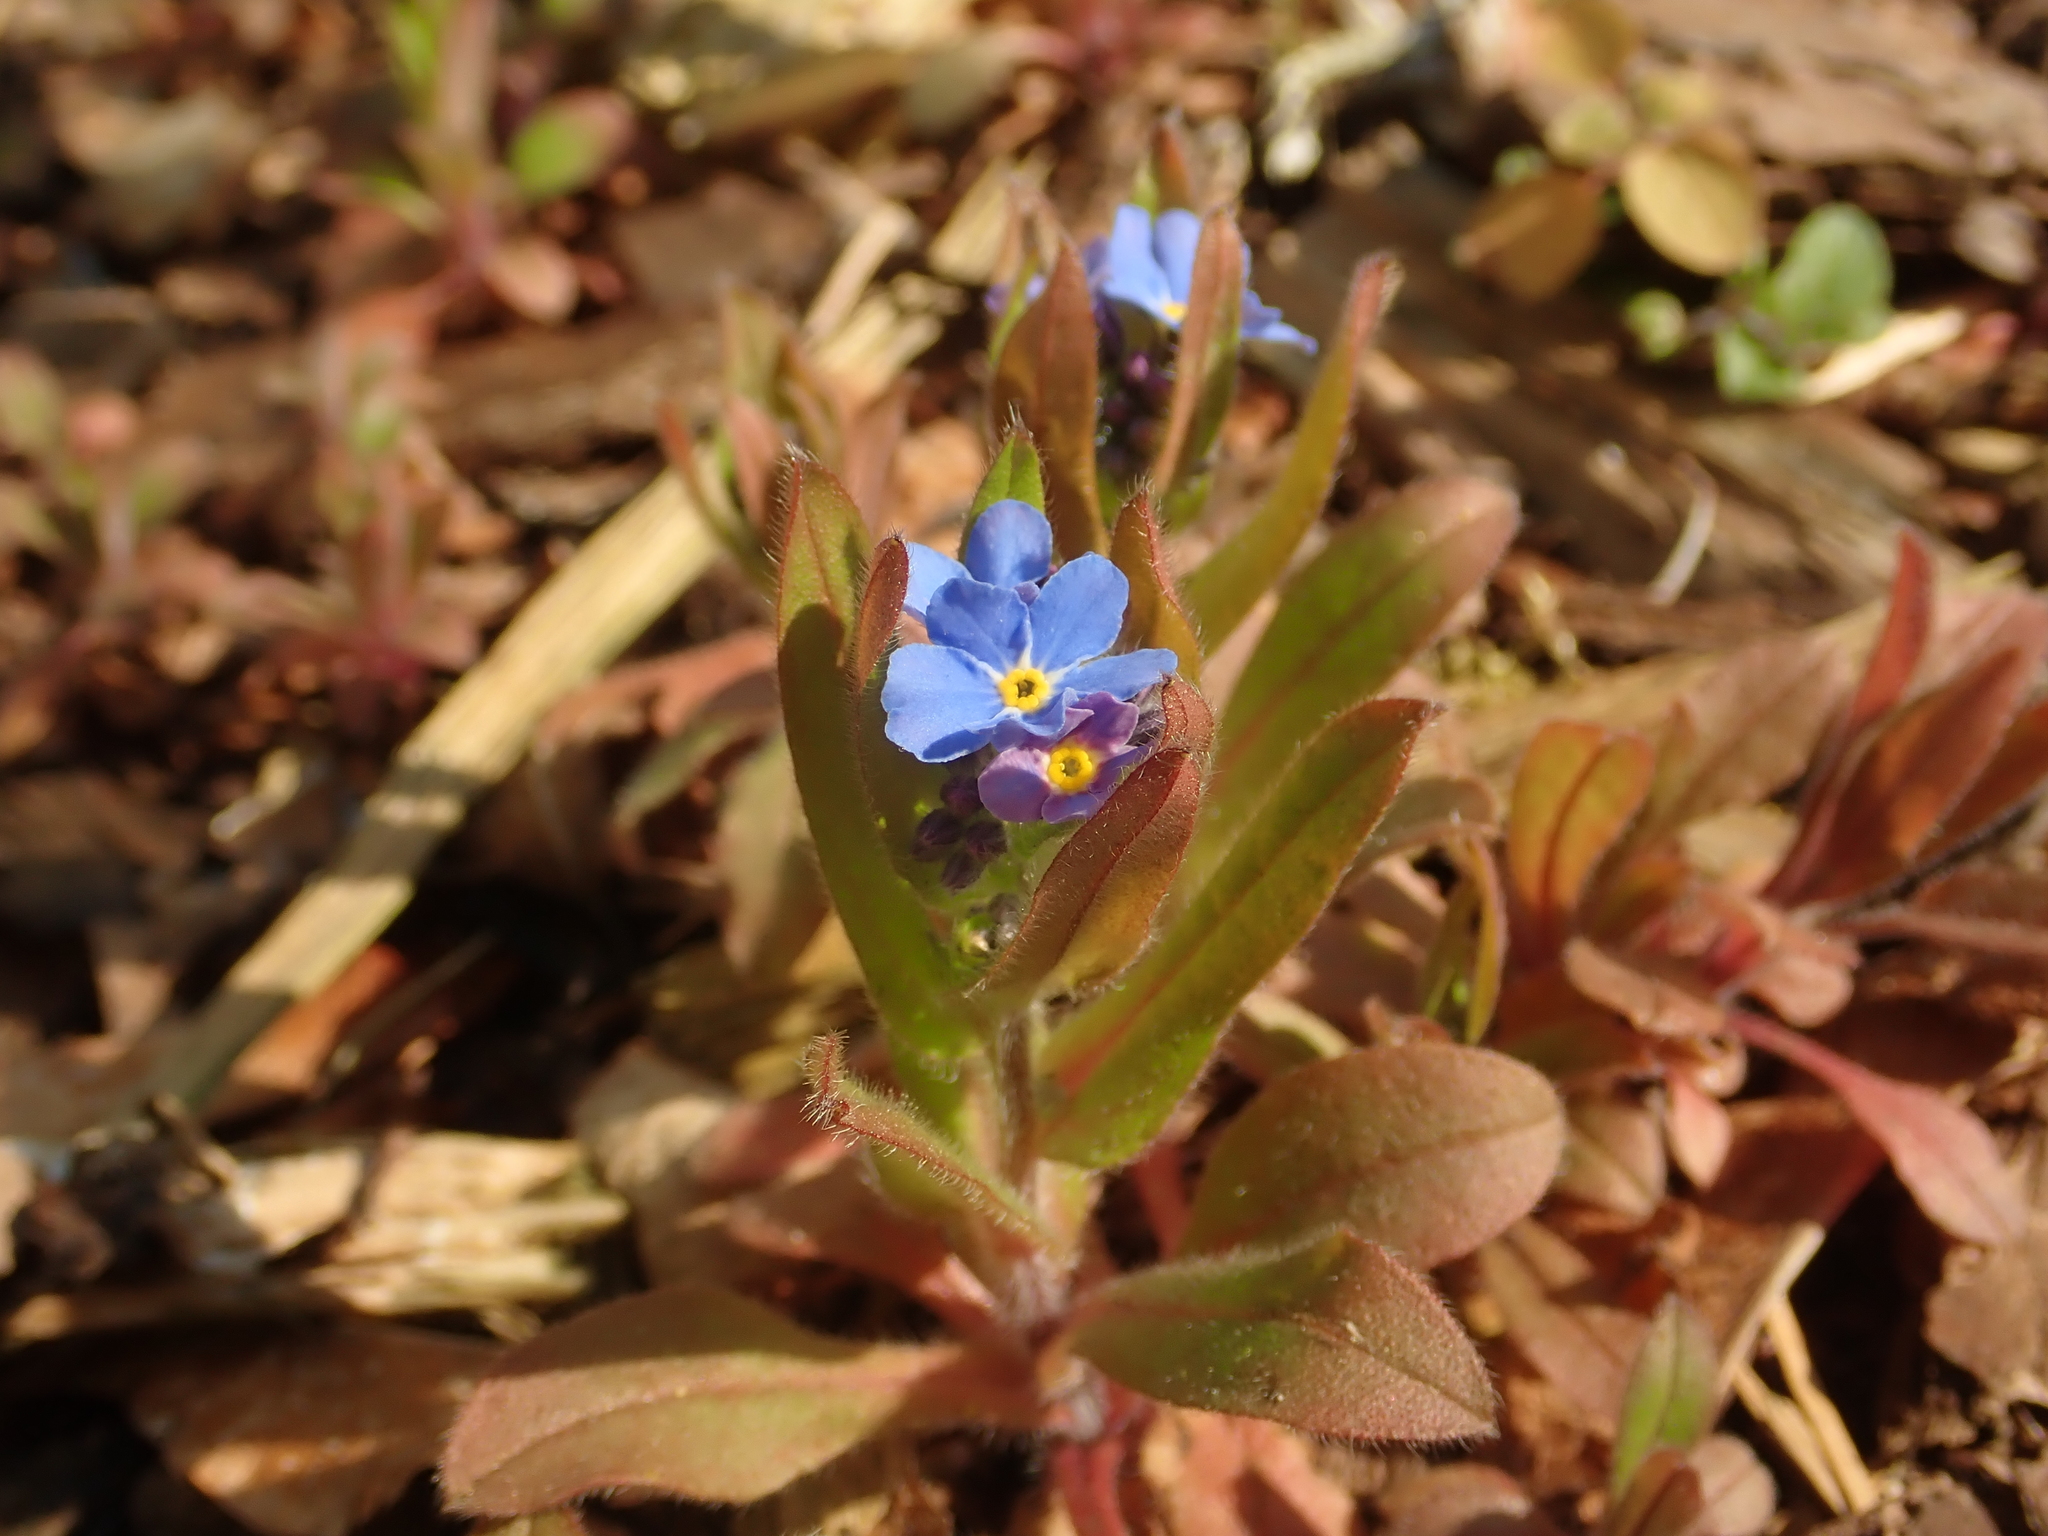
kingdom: Plantae
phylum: Tracheophyta
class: Magnoliopsida
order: Boraginales
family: Boraginaceae
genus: Myosotis
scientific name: Myosotis sylvatica
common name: Wood forget-me-not
